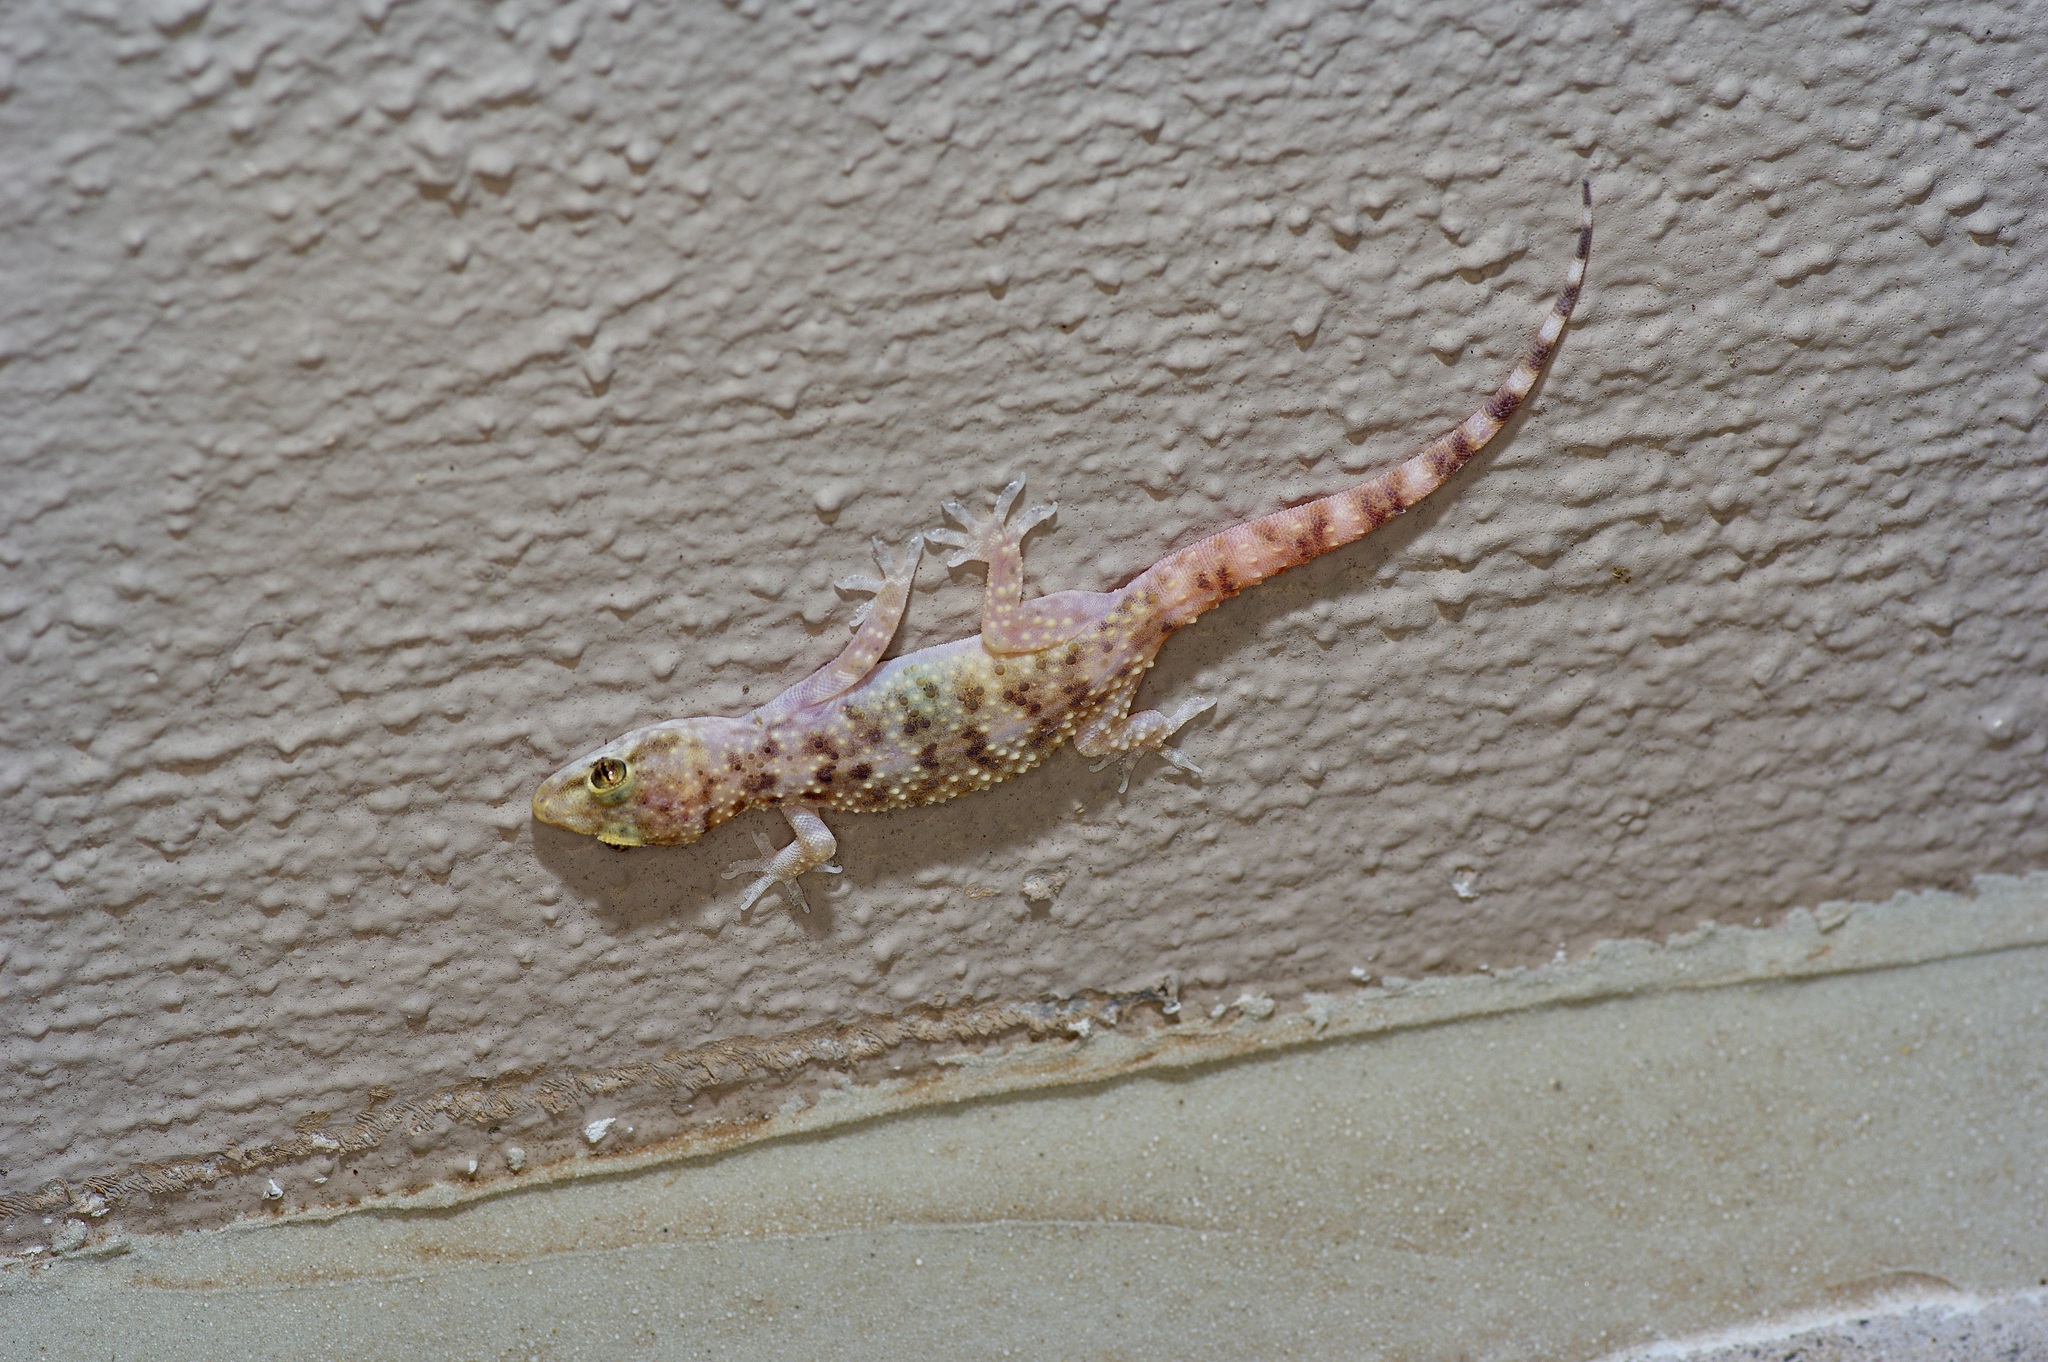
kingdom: Animalia
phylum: Chordata
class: Squamata
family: Gekkonidae
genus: Hemidactylus
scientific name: Hemidactylus turcicus
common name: Turkish gecko
